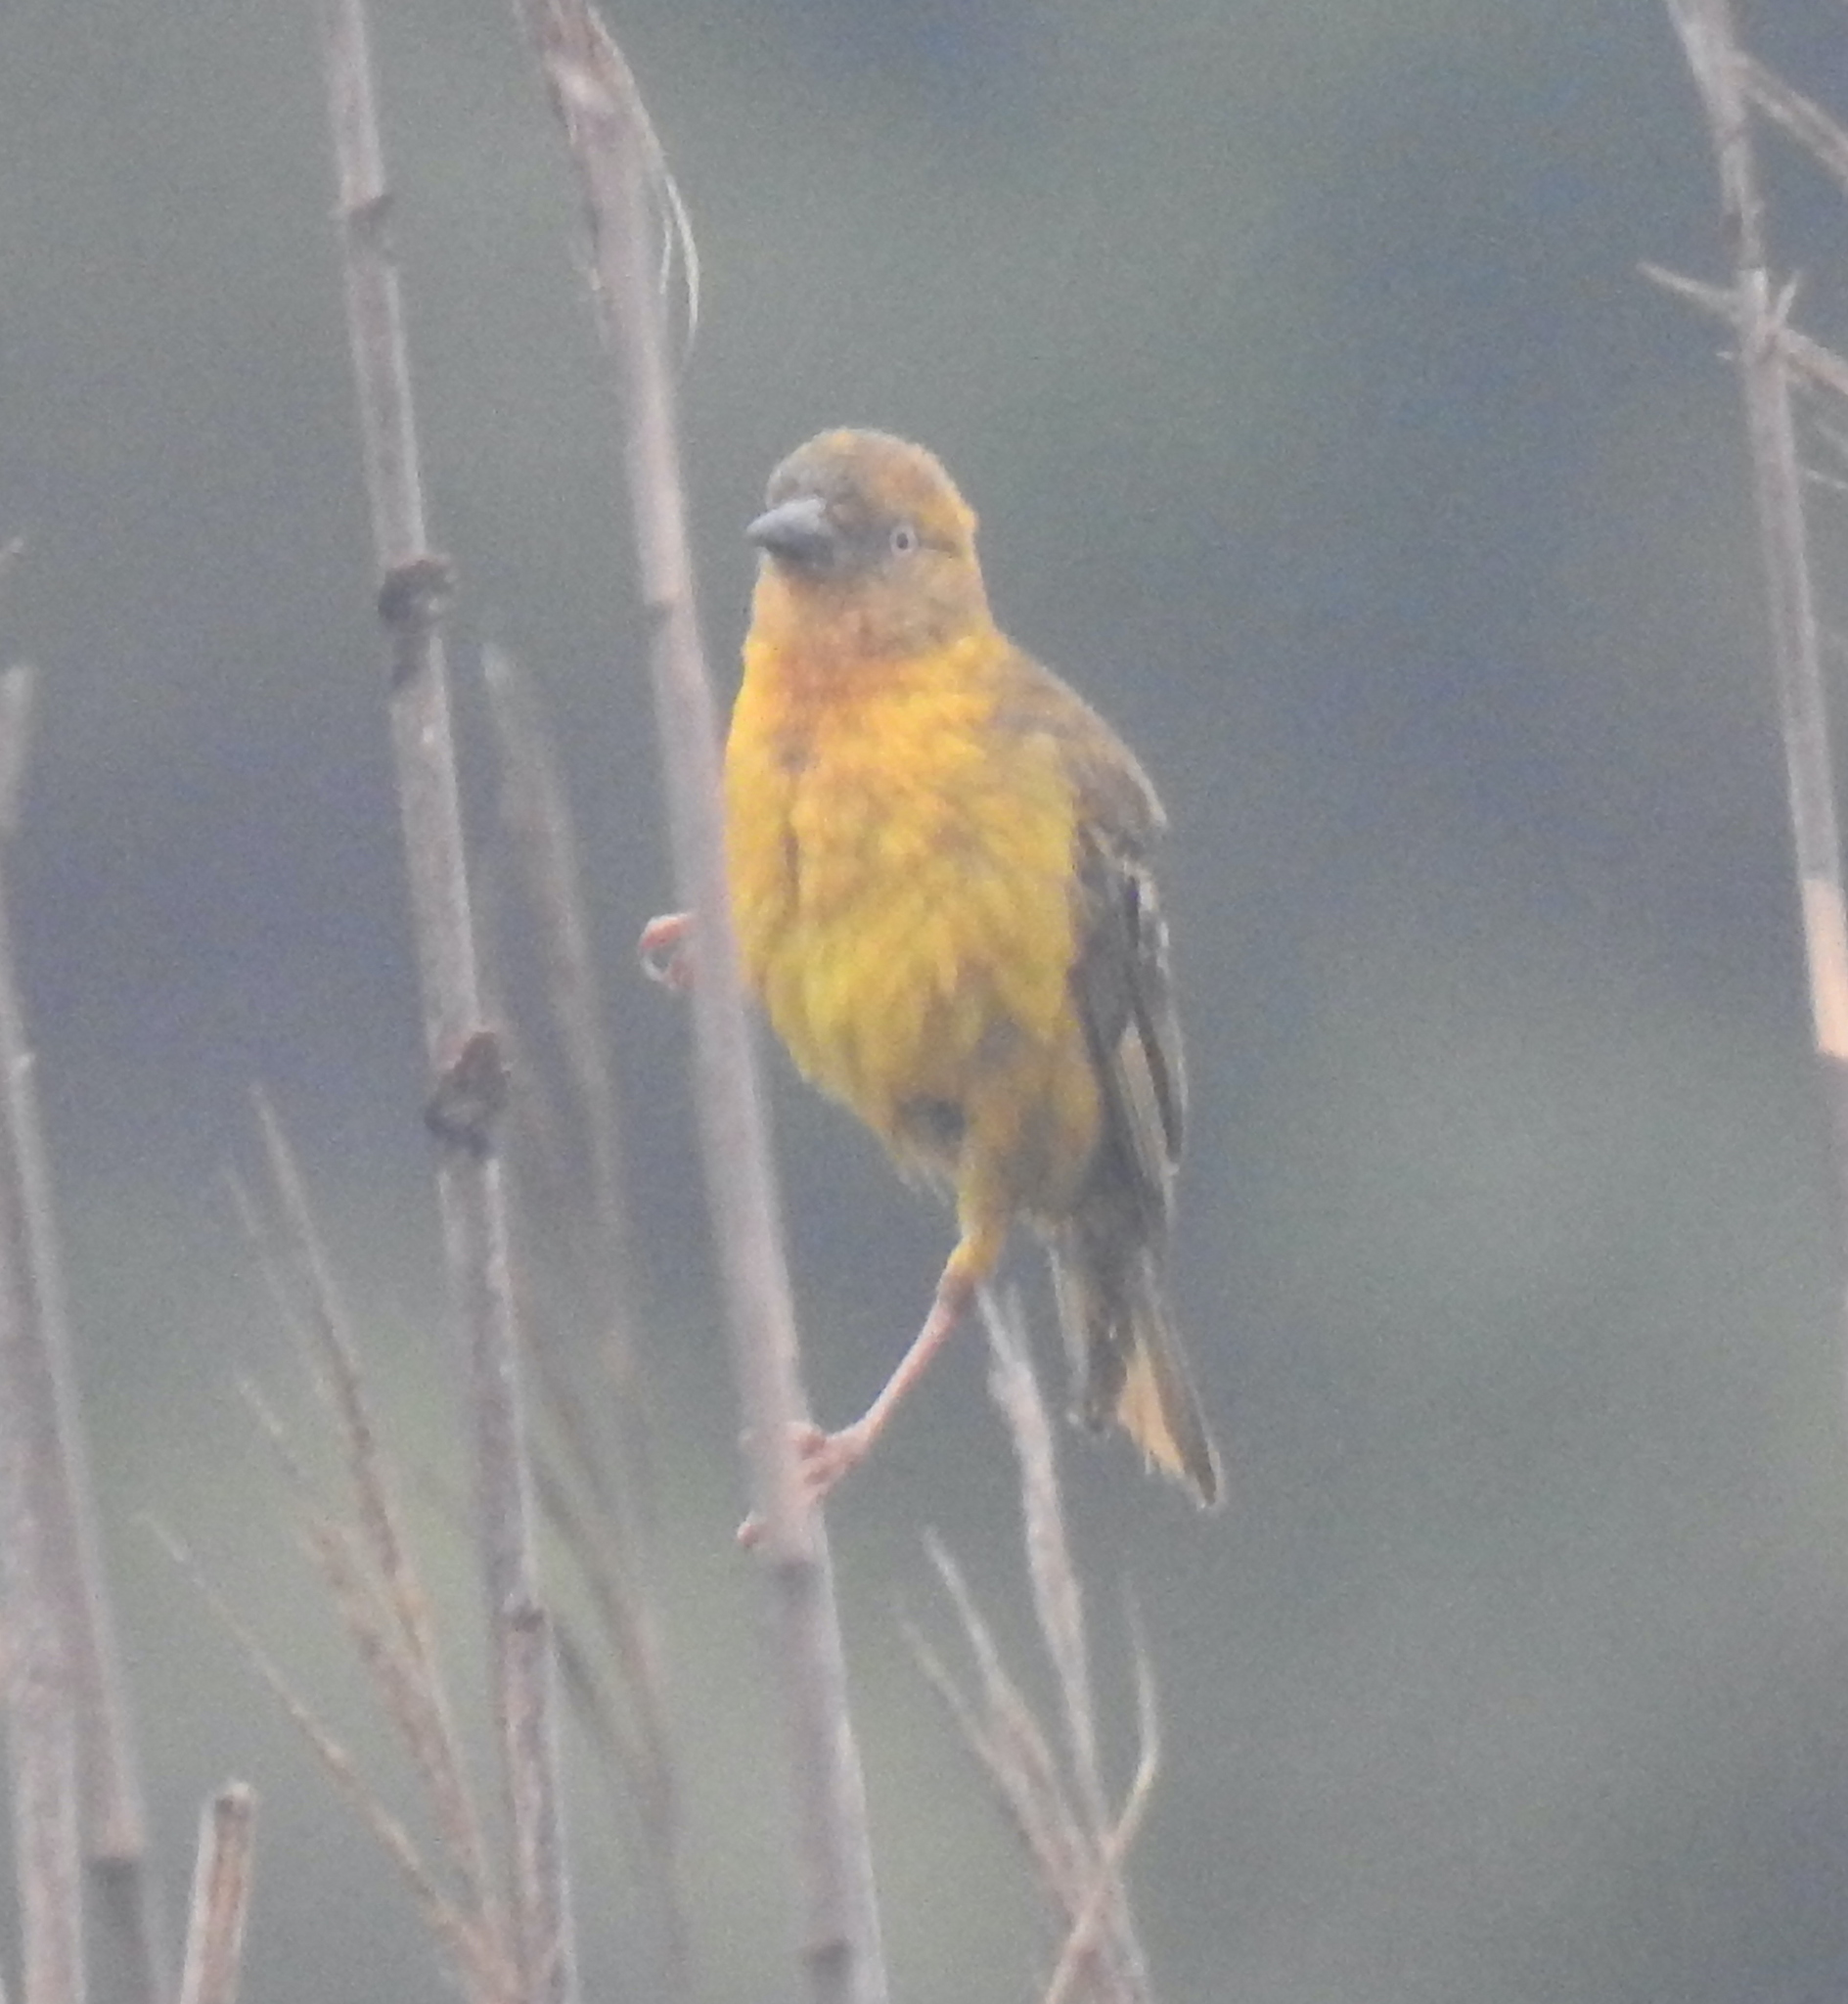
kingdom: Animalia
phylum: Chordata
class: Aves
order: Passeriformes
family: Ploceidae
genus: Ploceus
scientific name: Ploceus capensis
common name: Cape weaver
